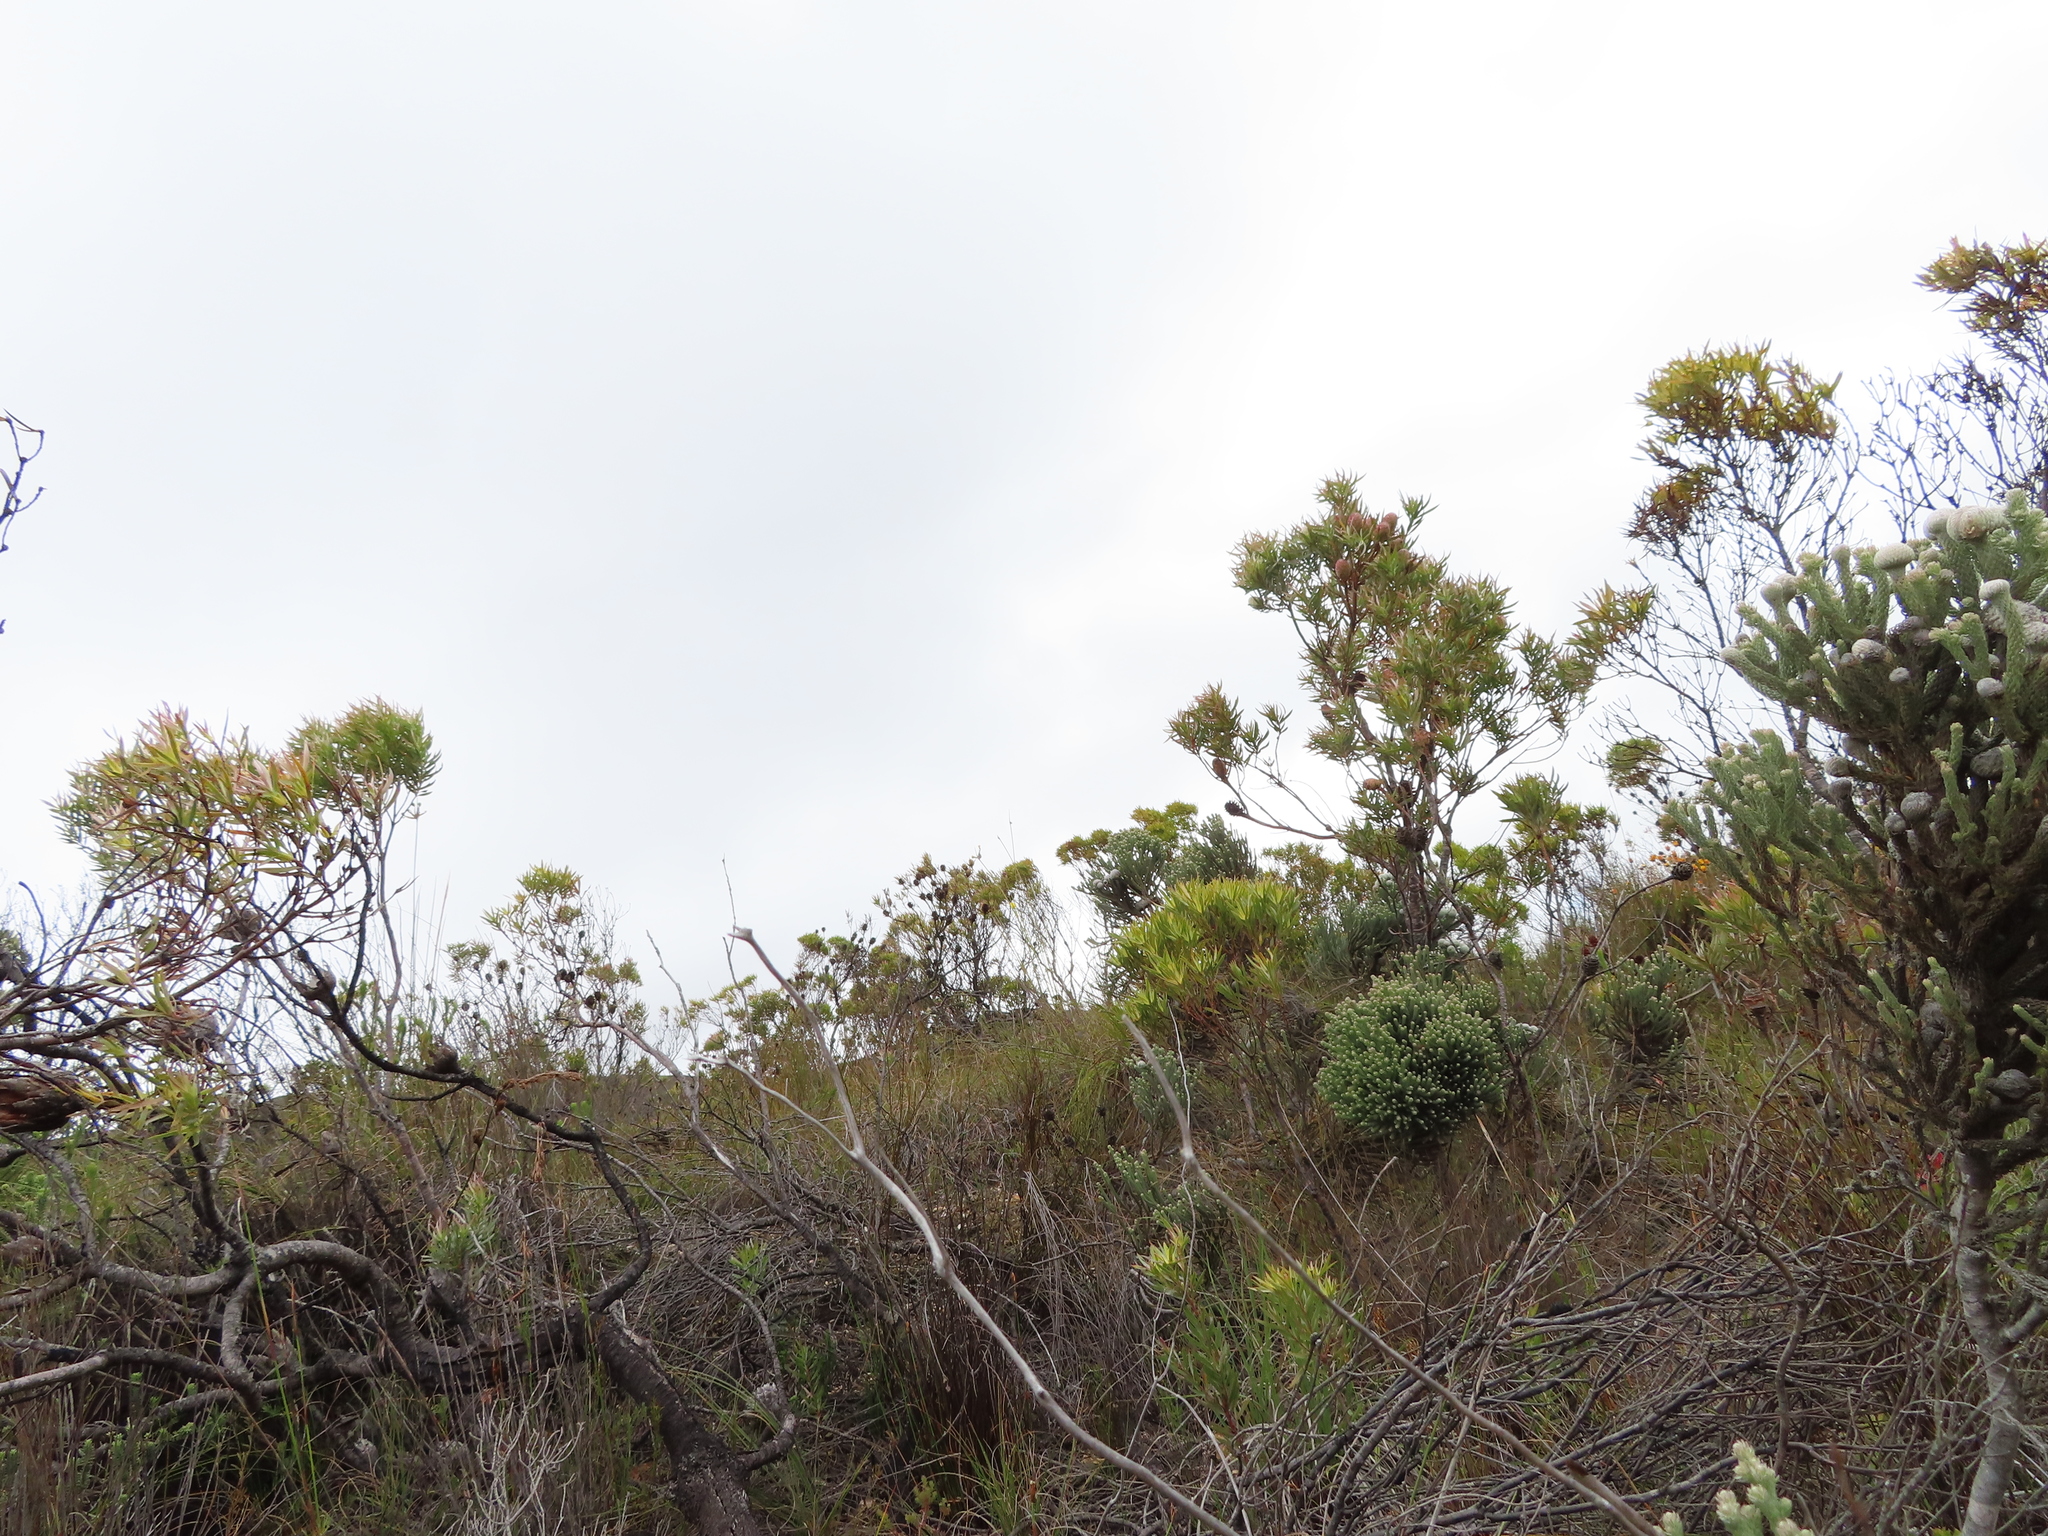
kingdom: Plantae
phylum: Tracheophyta
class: Magnoliopsida
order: Proteales
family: Proteaceae
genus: Protea
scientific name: Protea repens
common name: Sugarbush
